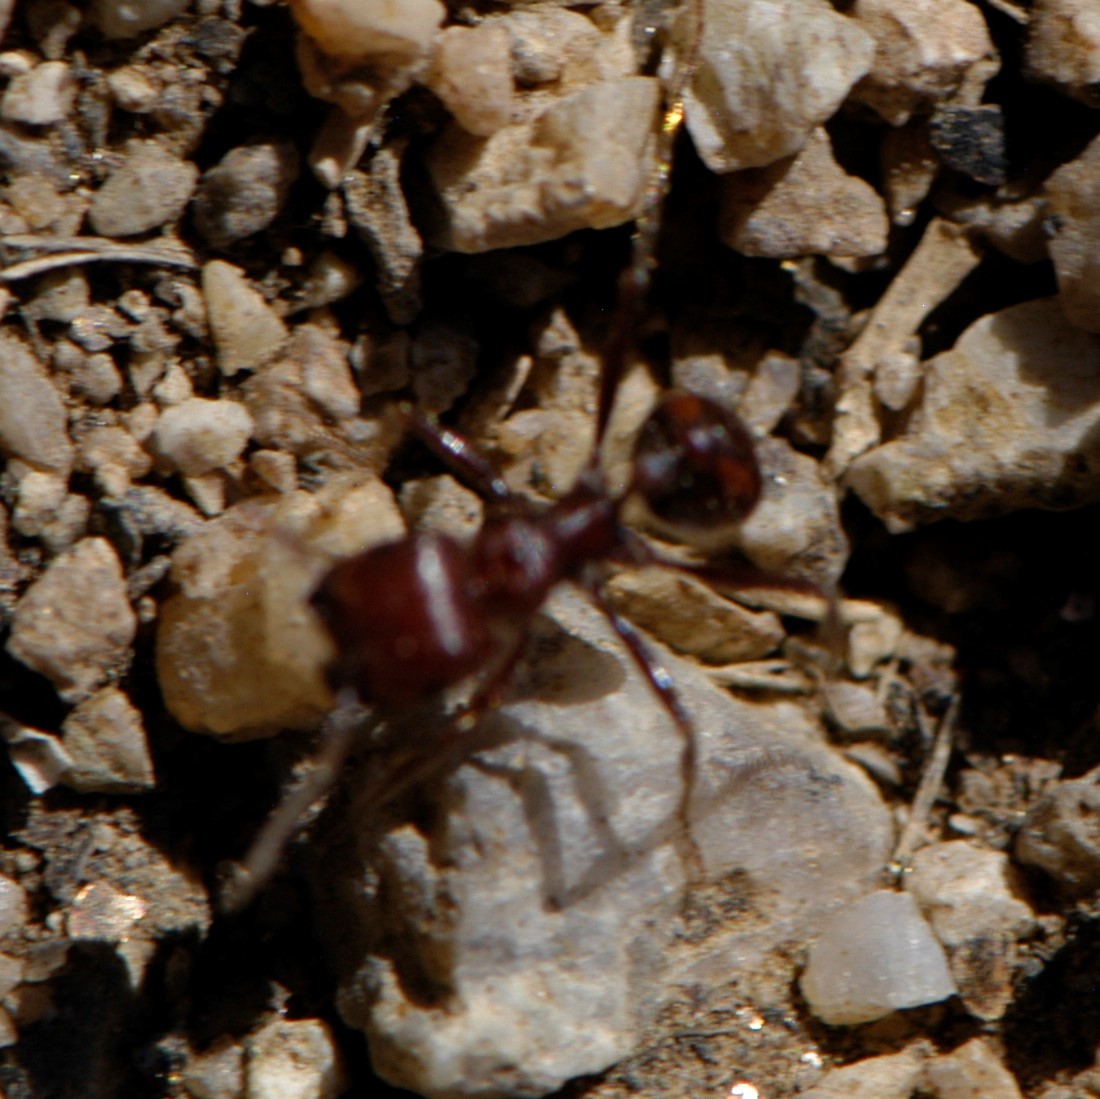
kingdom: Animalia
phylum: Arthropoda
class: Insecta
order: Hymenoptera
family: Formicidae
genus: Pogonomyrmex
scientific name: Pogonomyrmex
